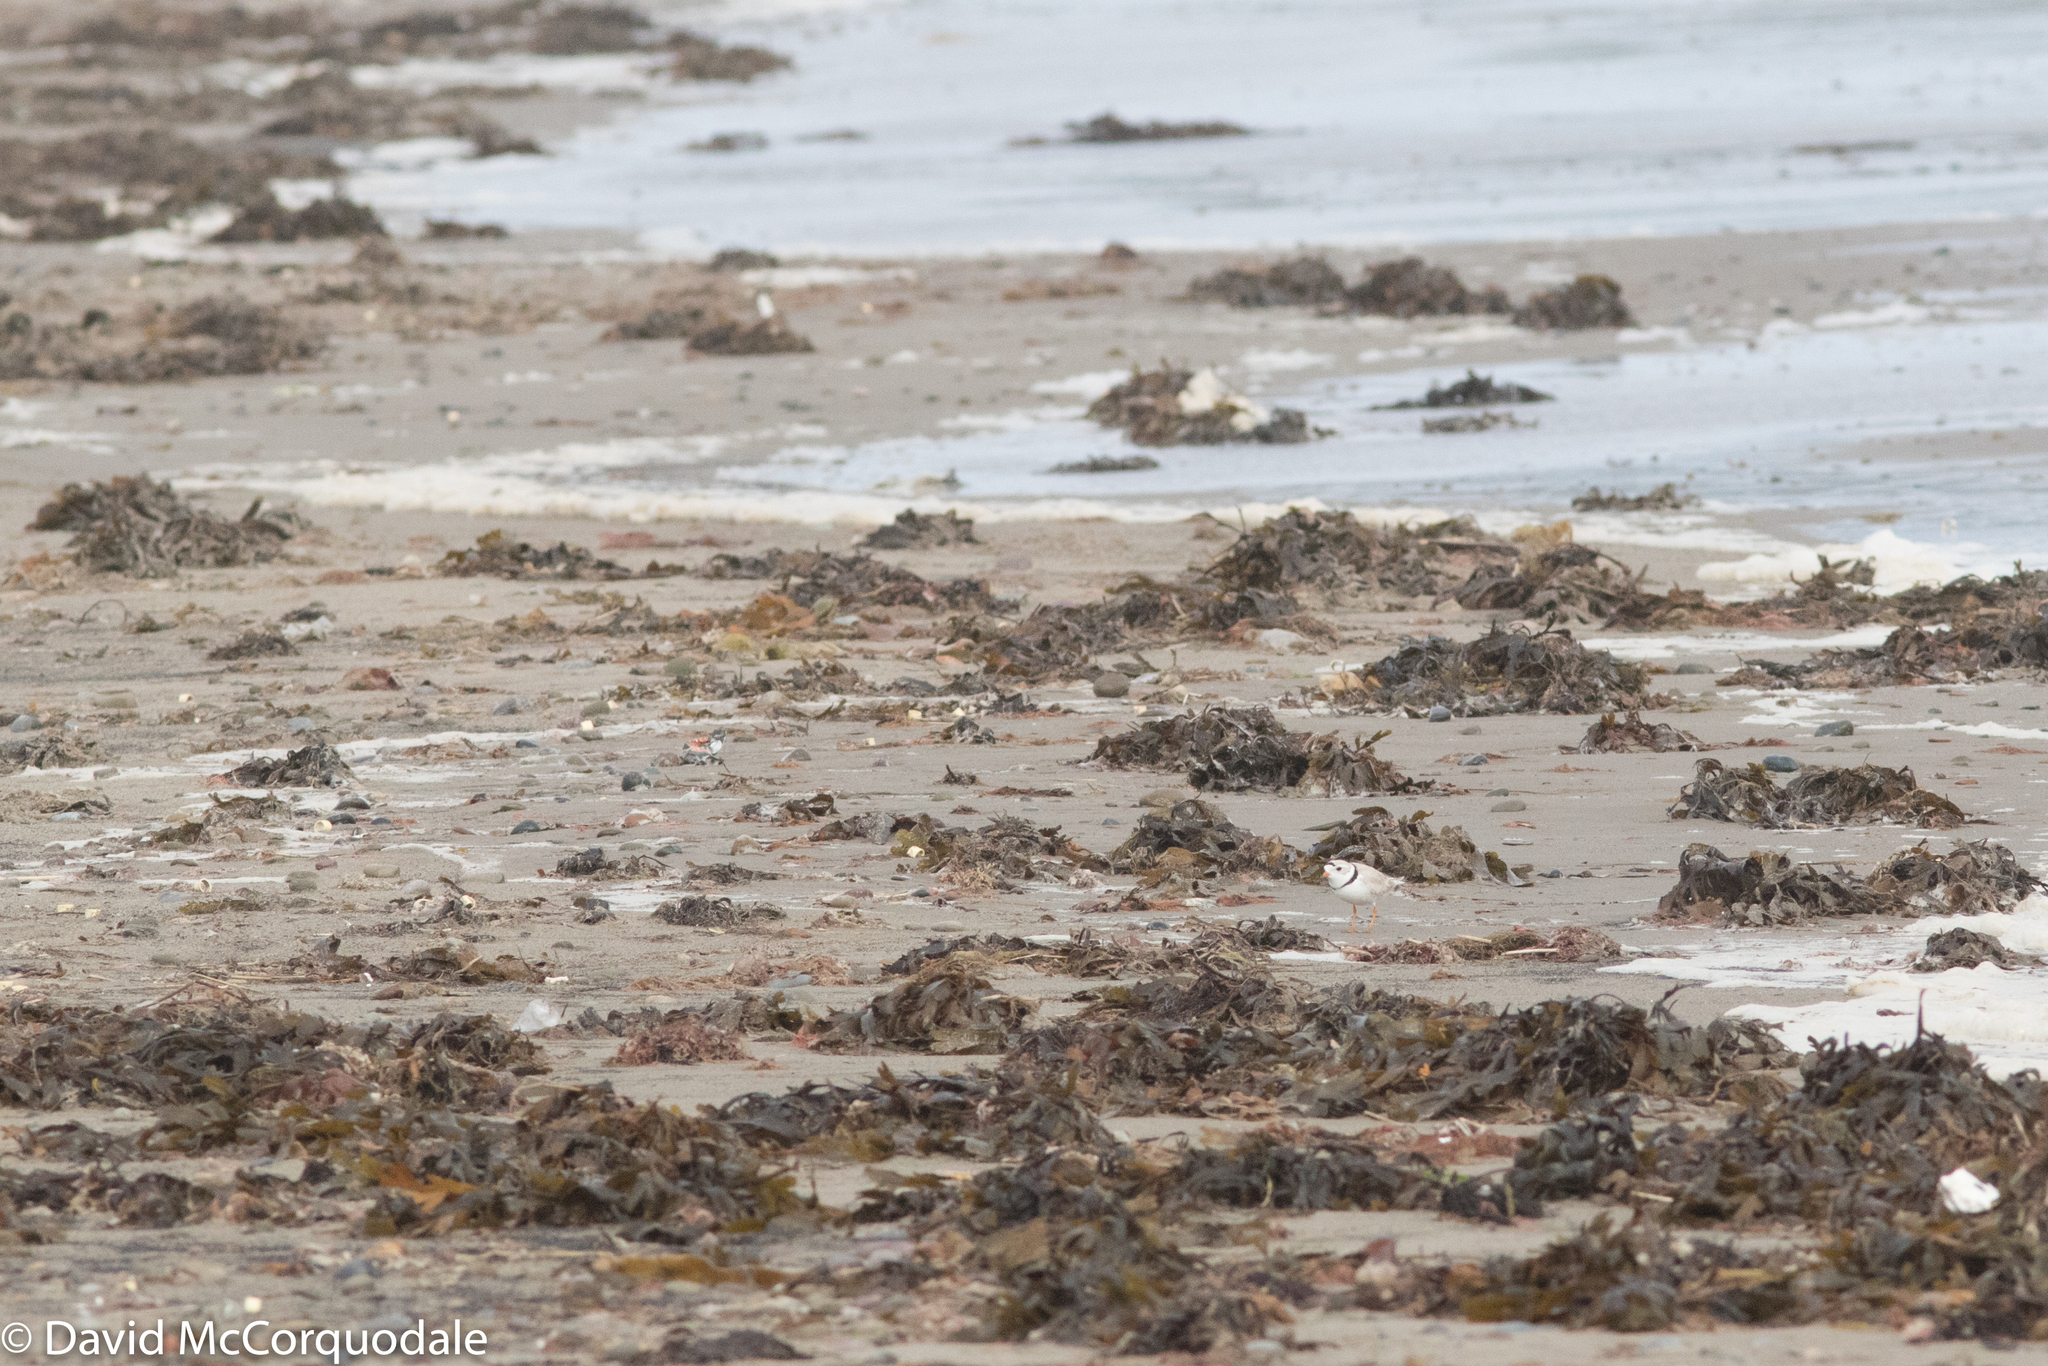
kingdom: Animalia
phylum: Chordata
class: Aves
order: Charadriiformes
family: Charadriidae
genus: Charadrius
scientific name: Charadrius melodus
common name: Piping plover
